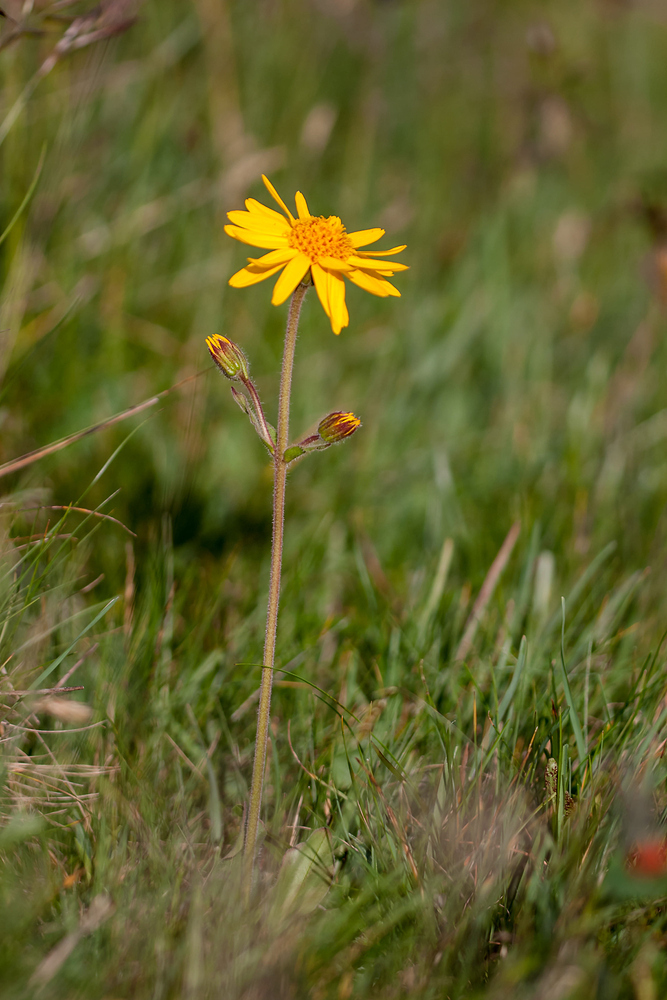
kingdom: Plantae
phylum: Tracheophyta
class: Magnoliopsida
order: Asterales
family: Asteraceae
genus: Arnica
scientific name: Arnica montana
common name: Leopard's bane
